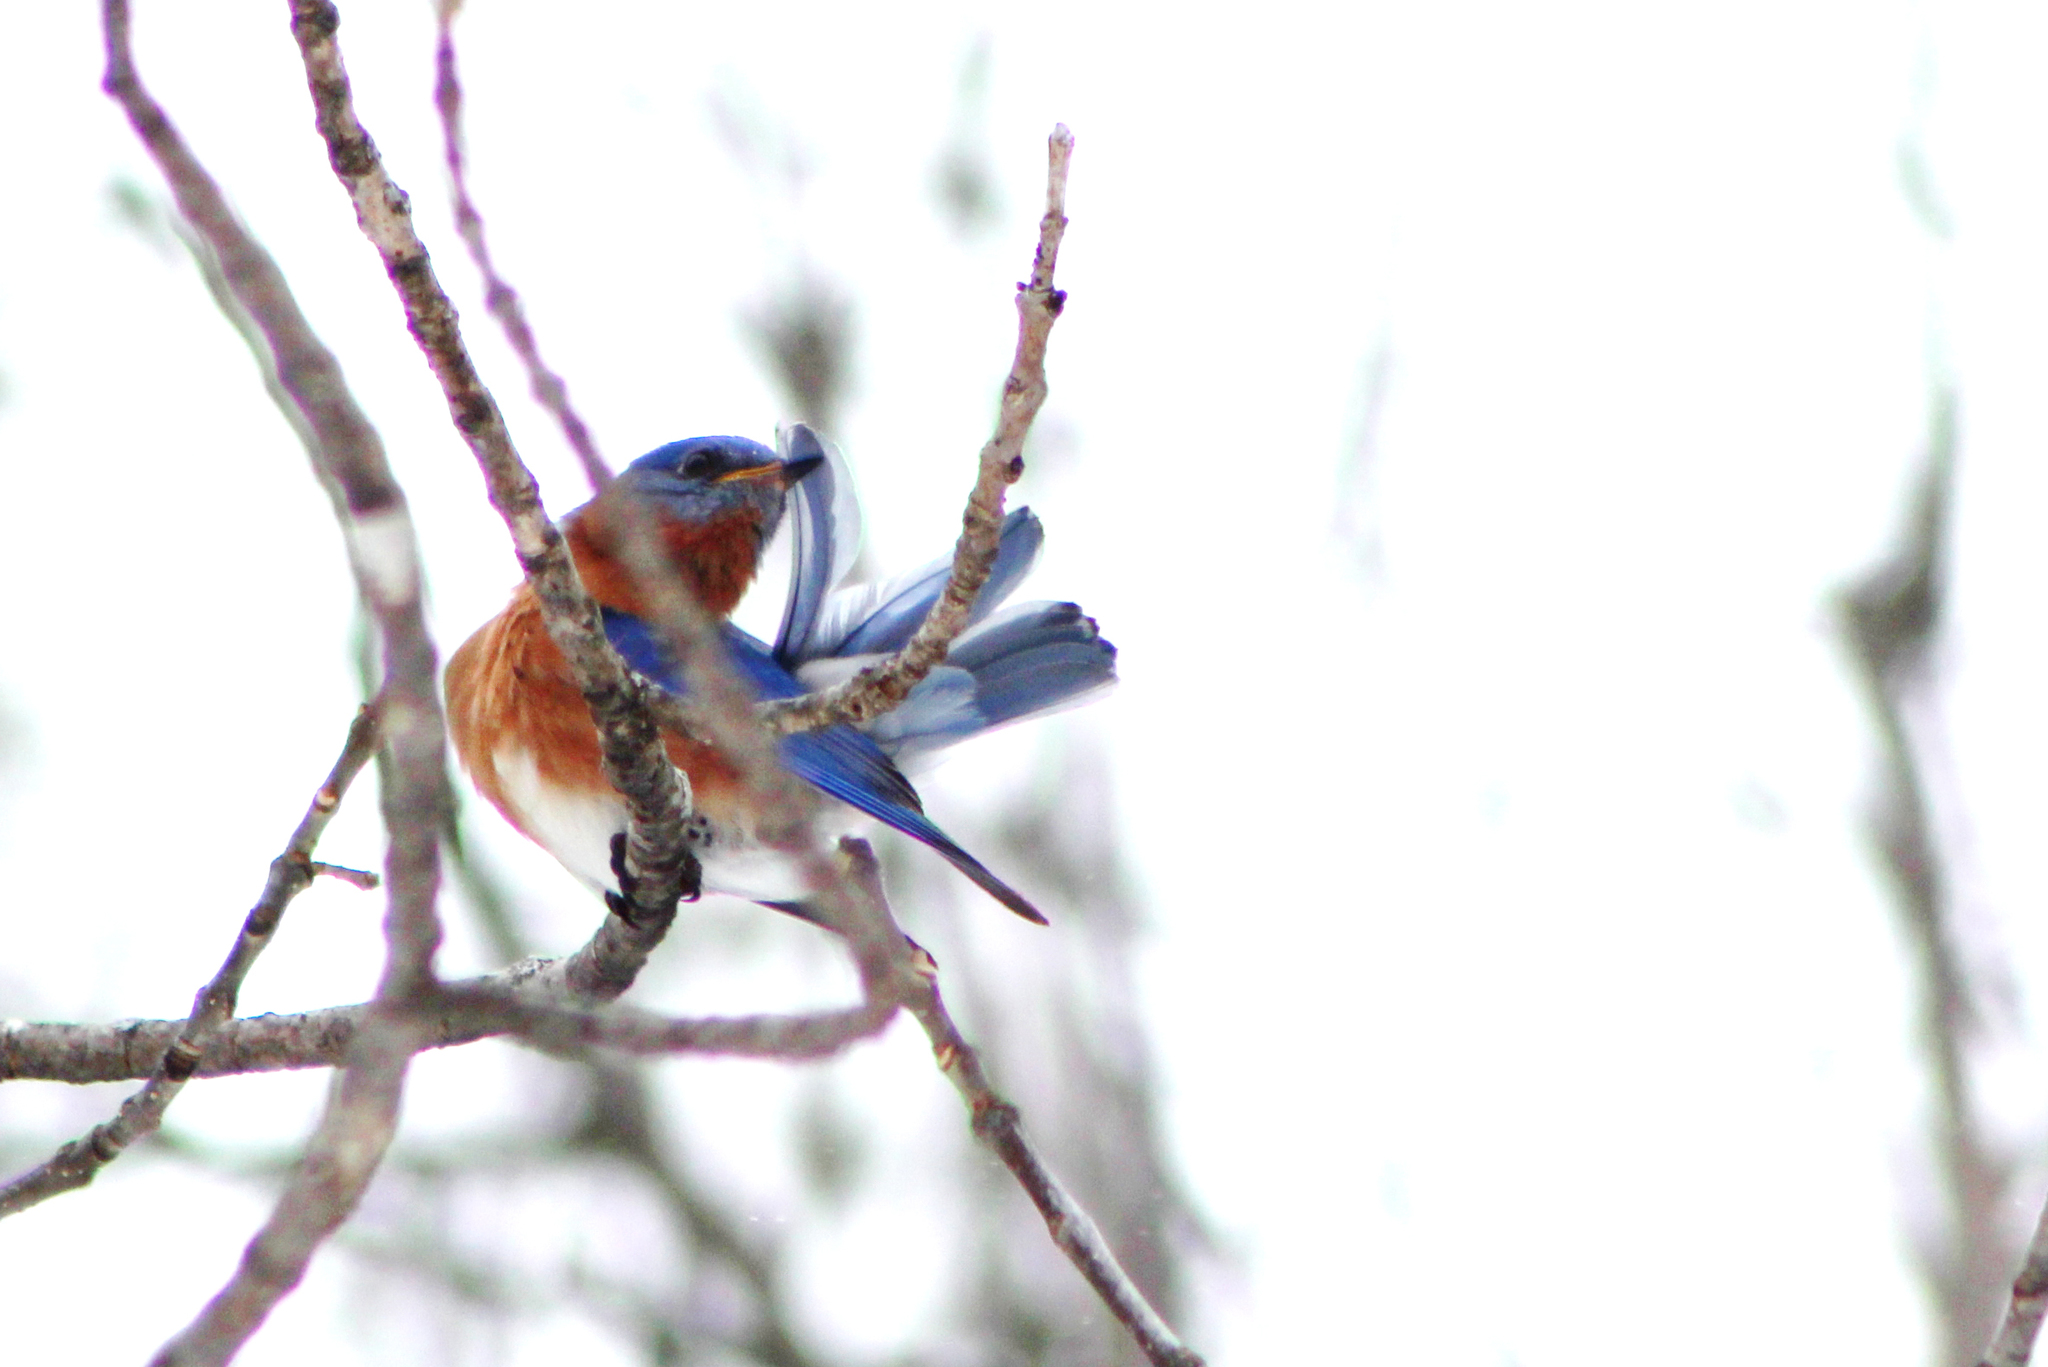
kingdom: Animalia
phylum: Chordata
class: Aves
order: Passeriformes
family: Turdidae
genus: Sialia
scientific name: Sialia sialis
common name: Eastern bluebird
